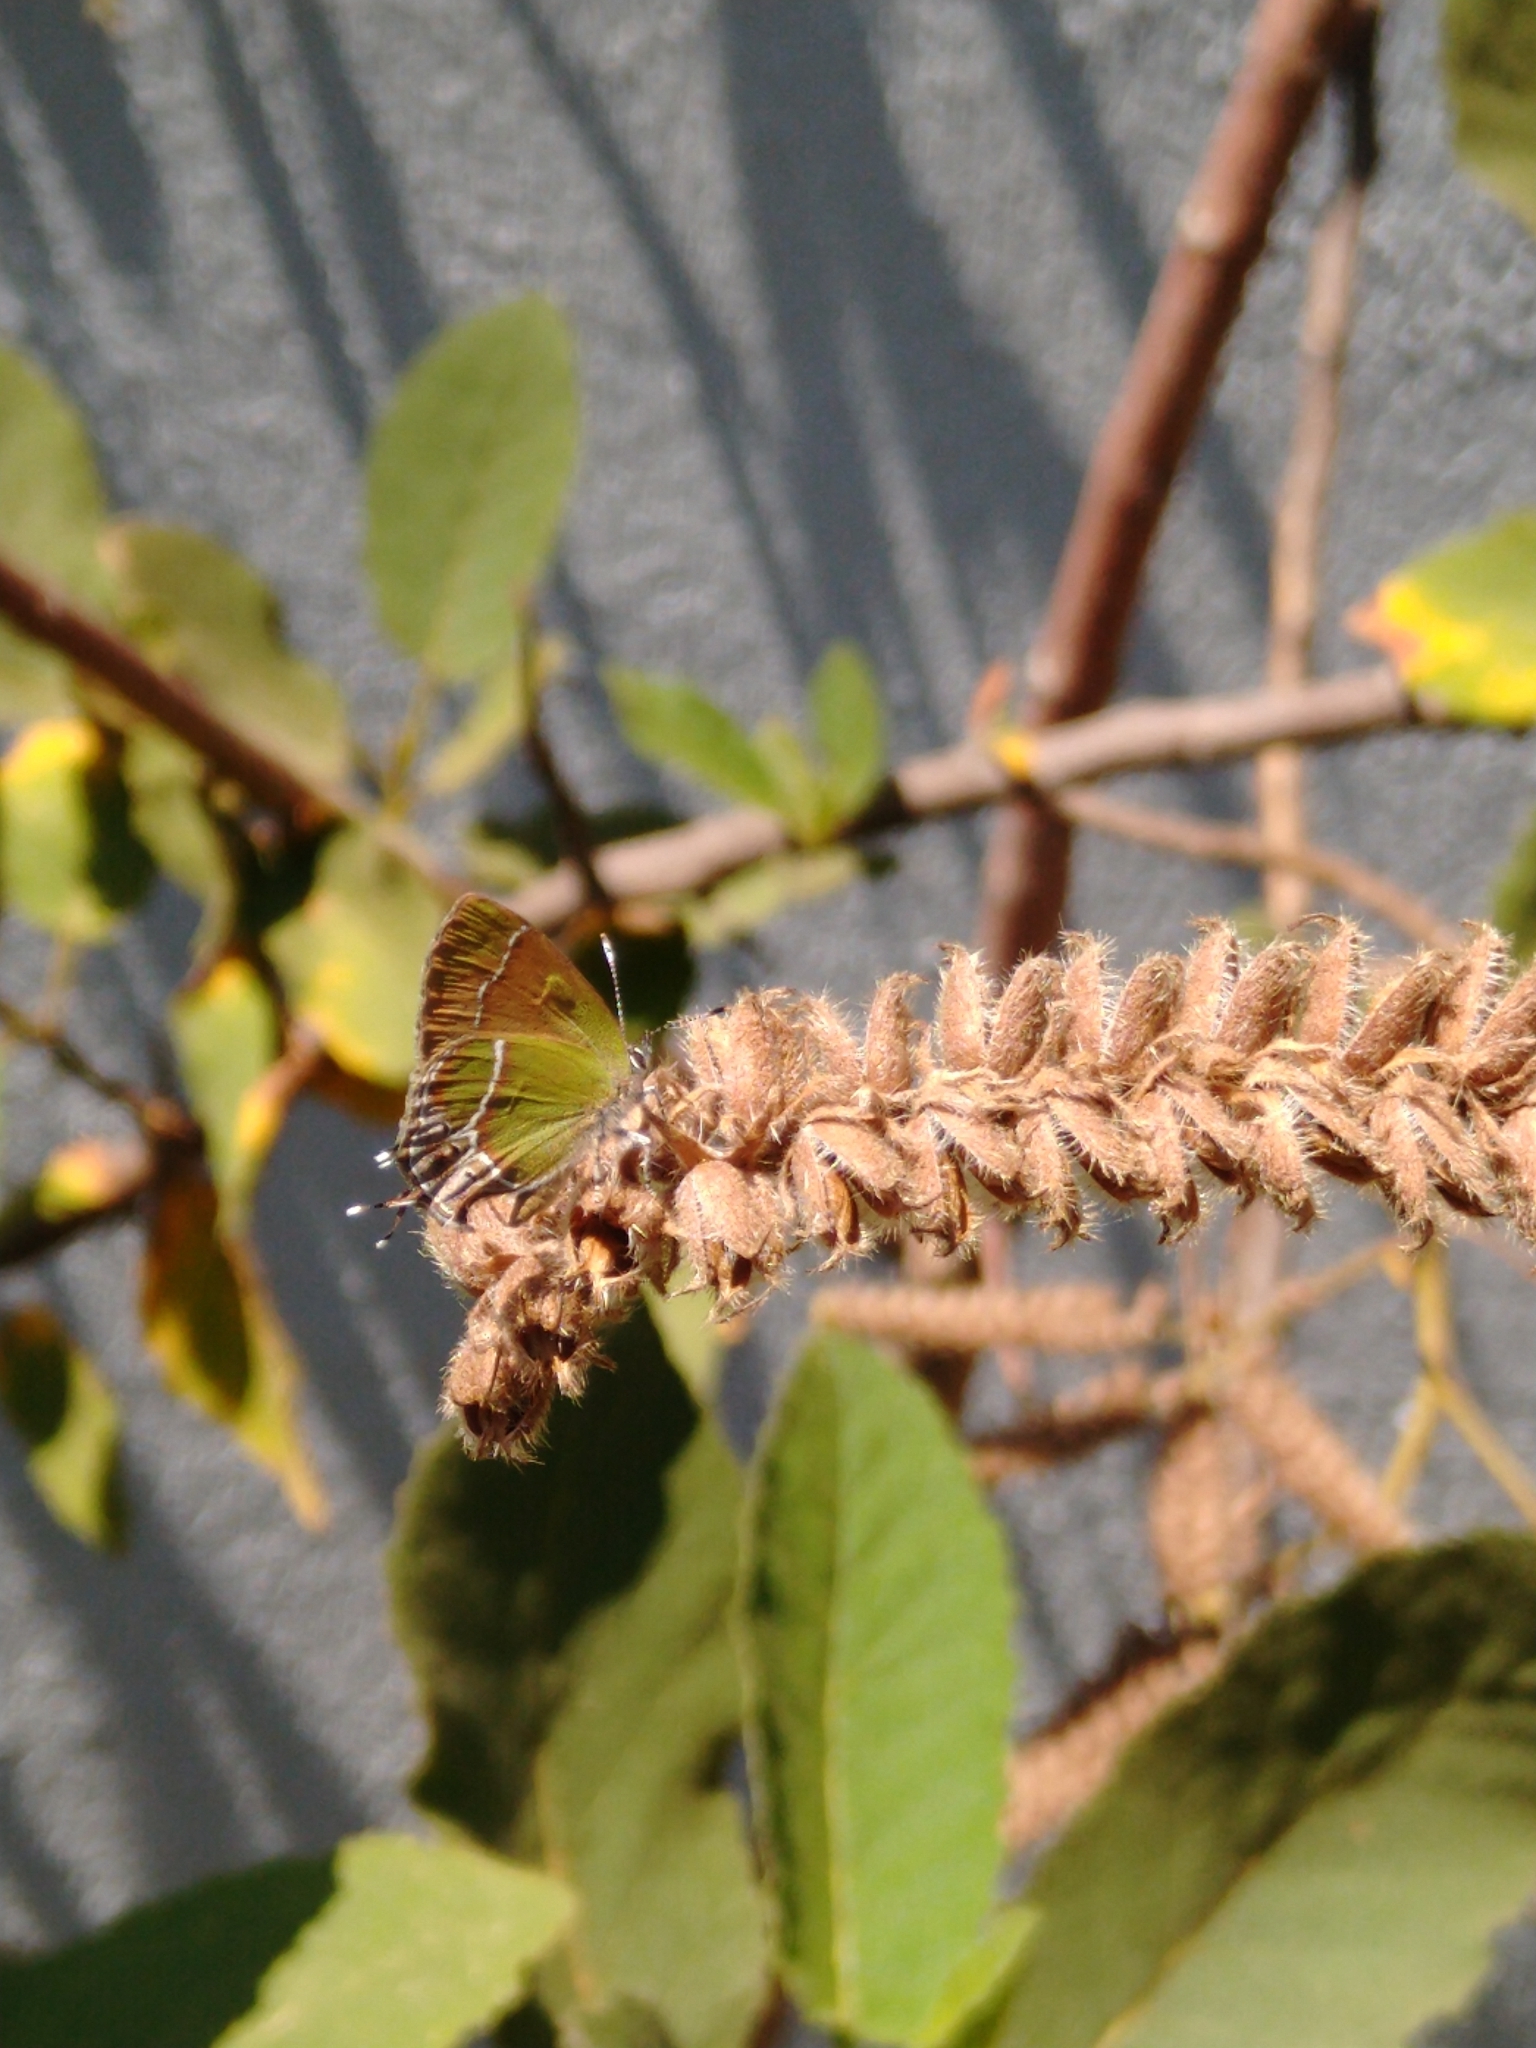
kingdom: Animalia
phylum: Arthropoda
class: Insecta
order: Lepidoptera
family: Lycaenidae
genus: Xamia
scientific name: Xamia xami
